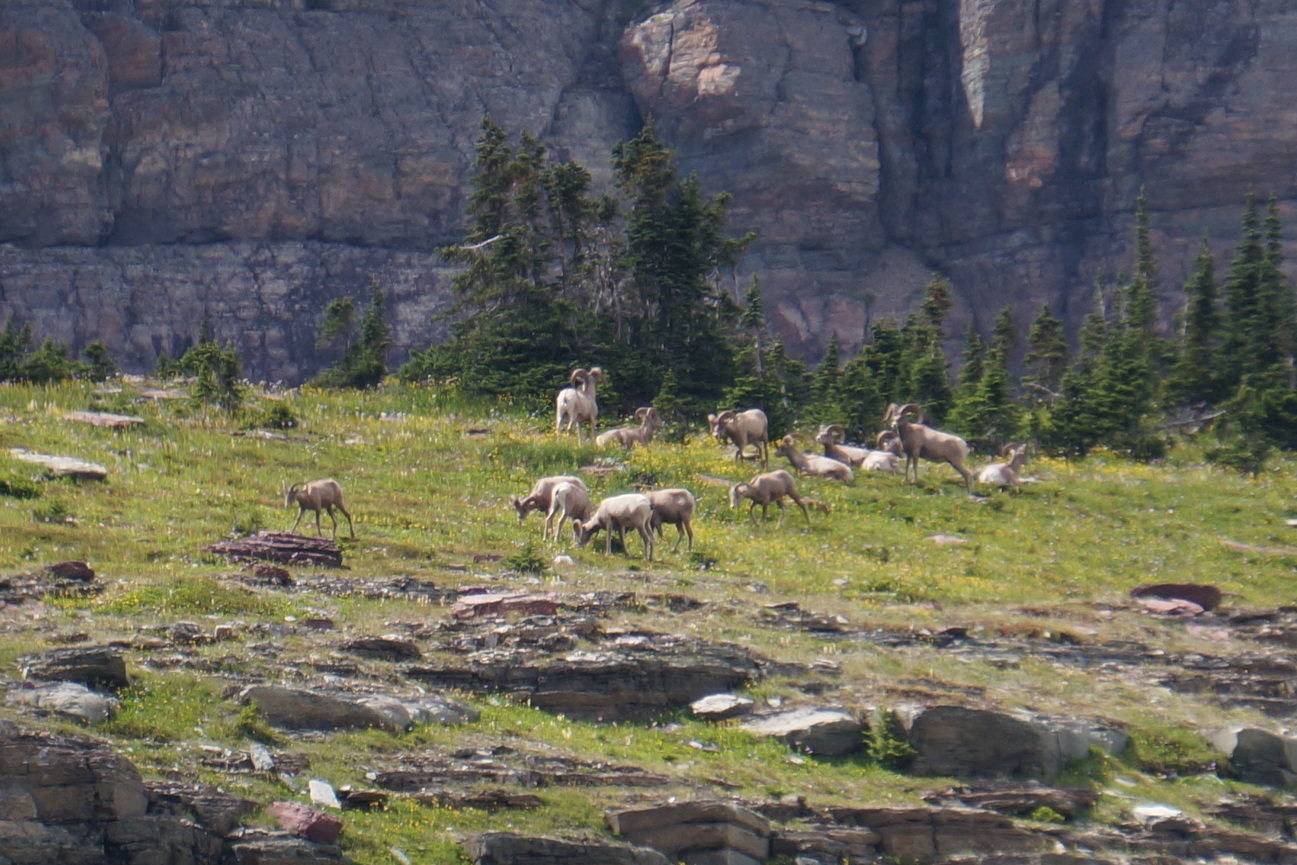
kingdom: Animalia
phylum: Chordata
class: Mammalia
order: Artiodactyla
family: Bovidae
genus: Ovis
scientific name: Ovis canadensis
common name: Bighorn sheep
